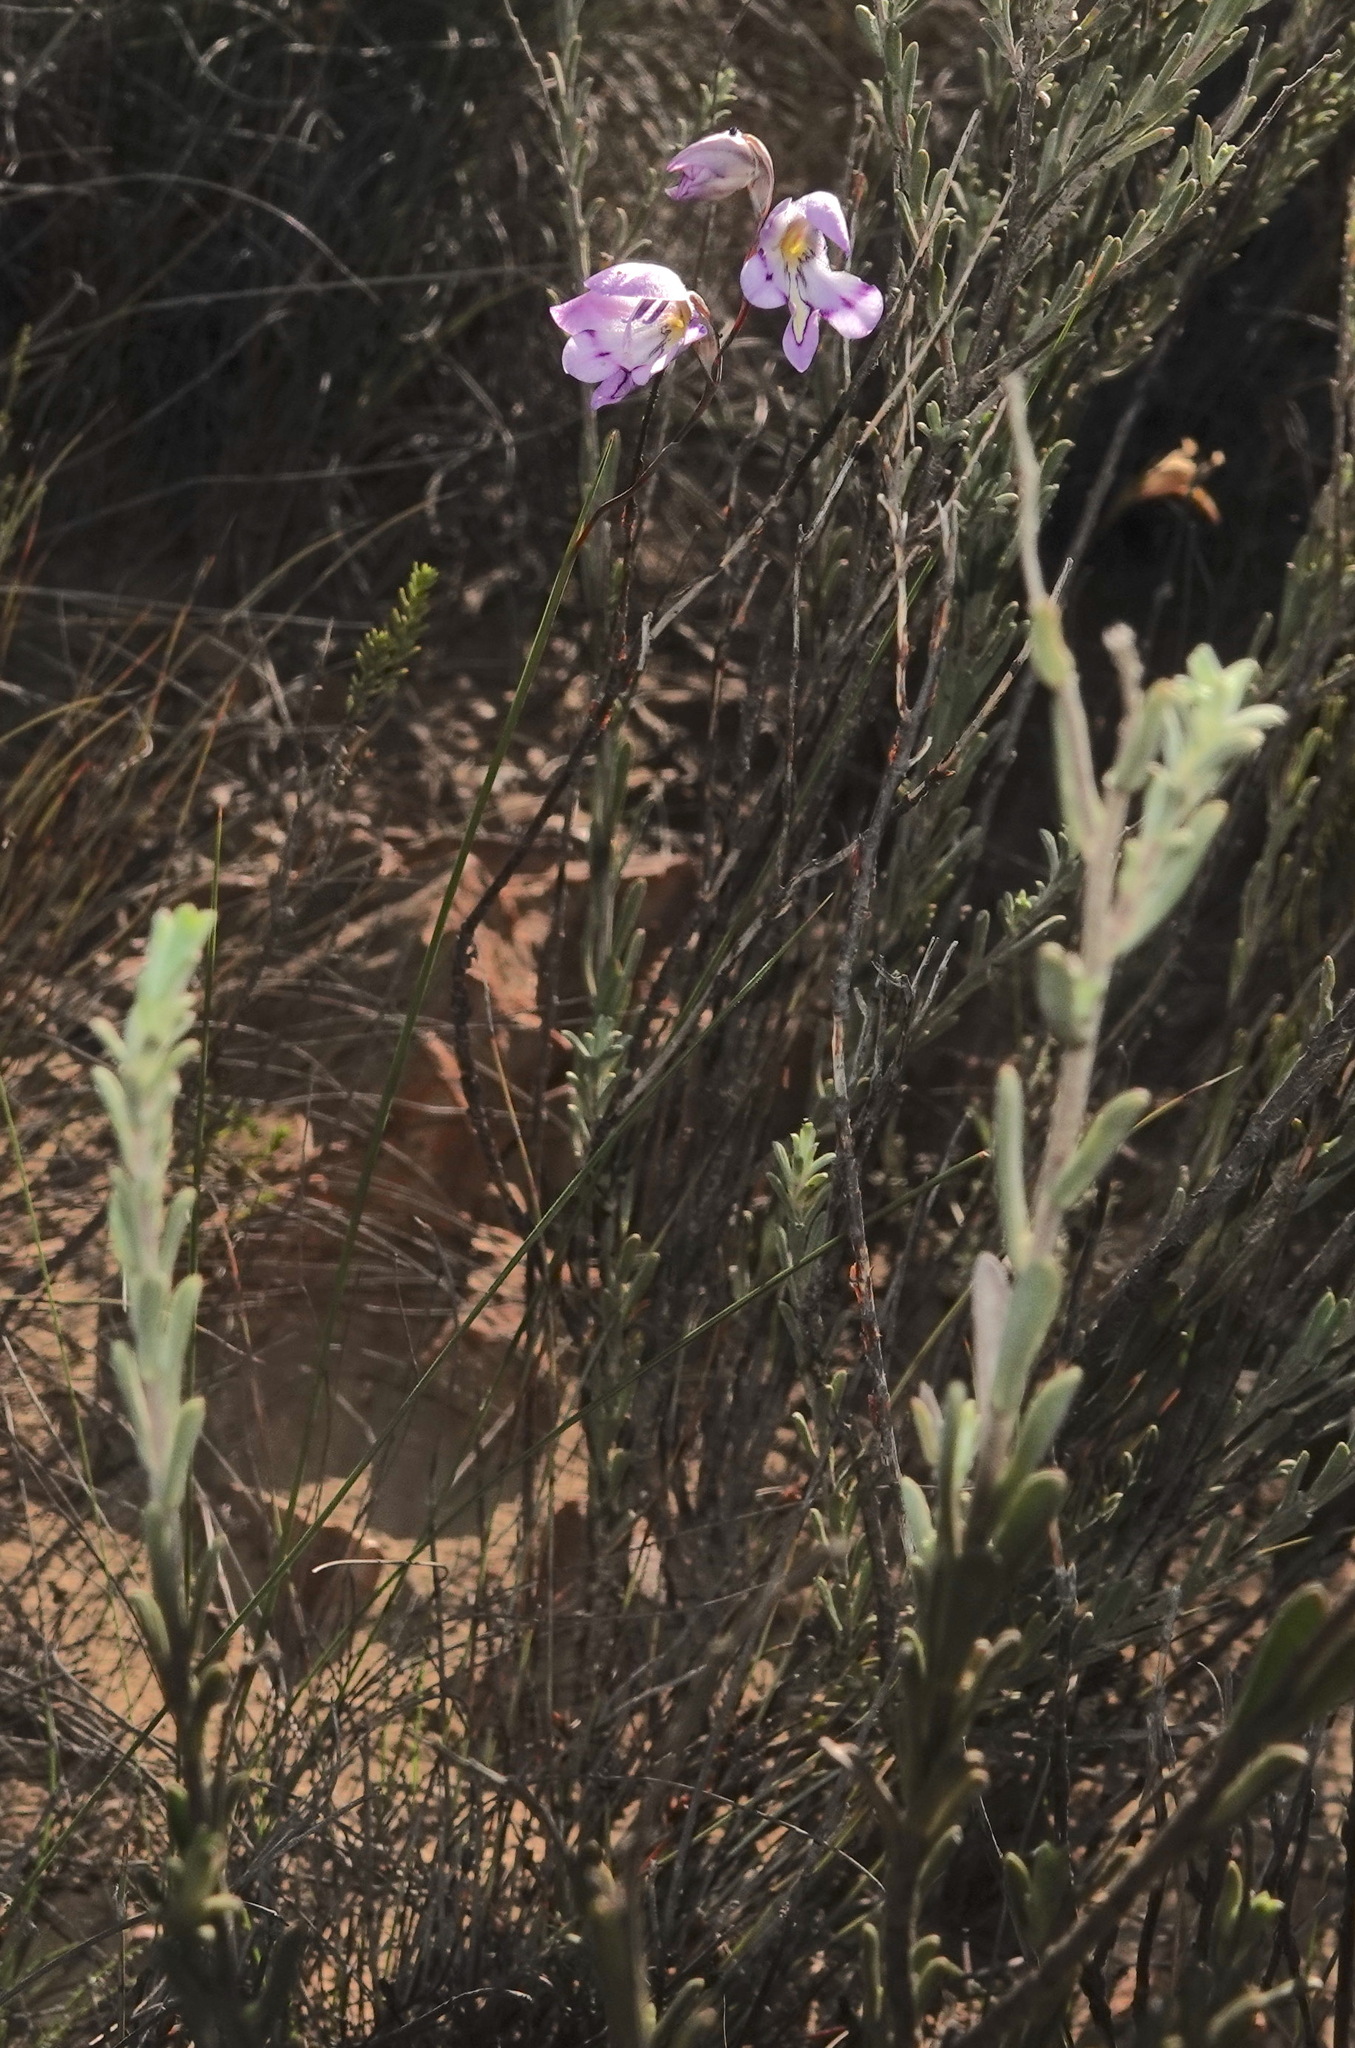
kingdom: Plantae
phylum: Tracheophyta
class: Liliopsida
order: Asparagales
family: Iridaceae
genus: Gladiolus
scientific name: Gladiolus inflatus
